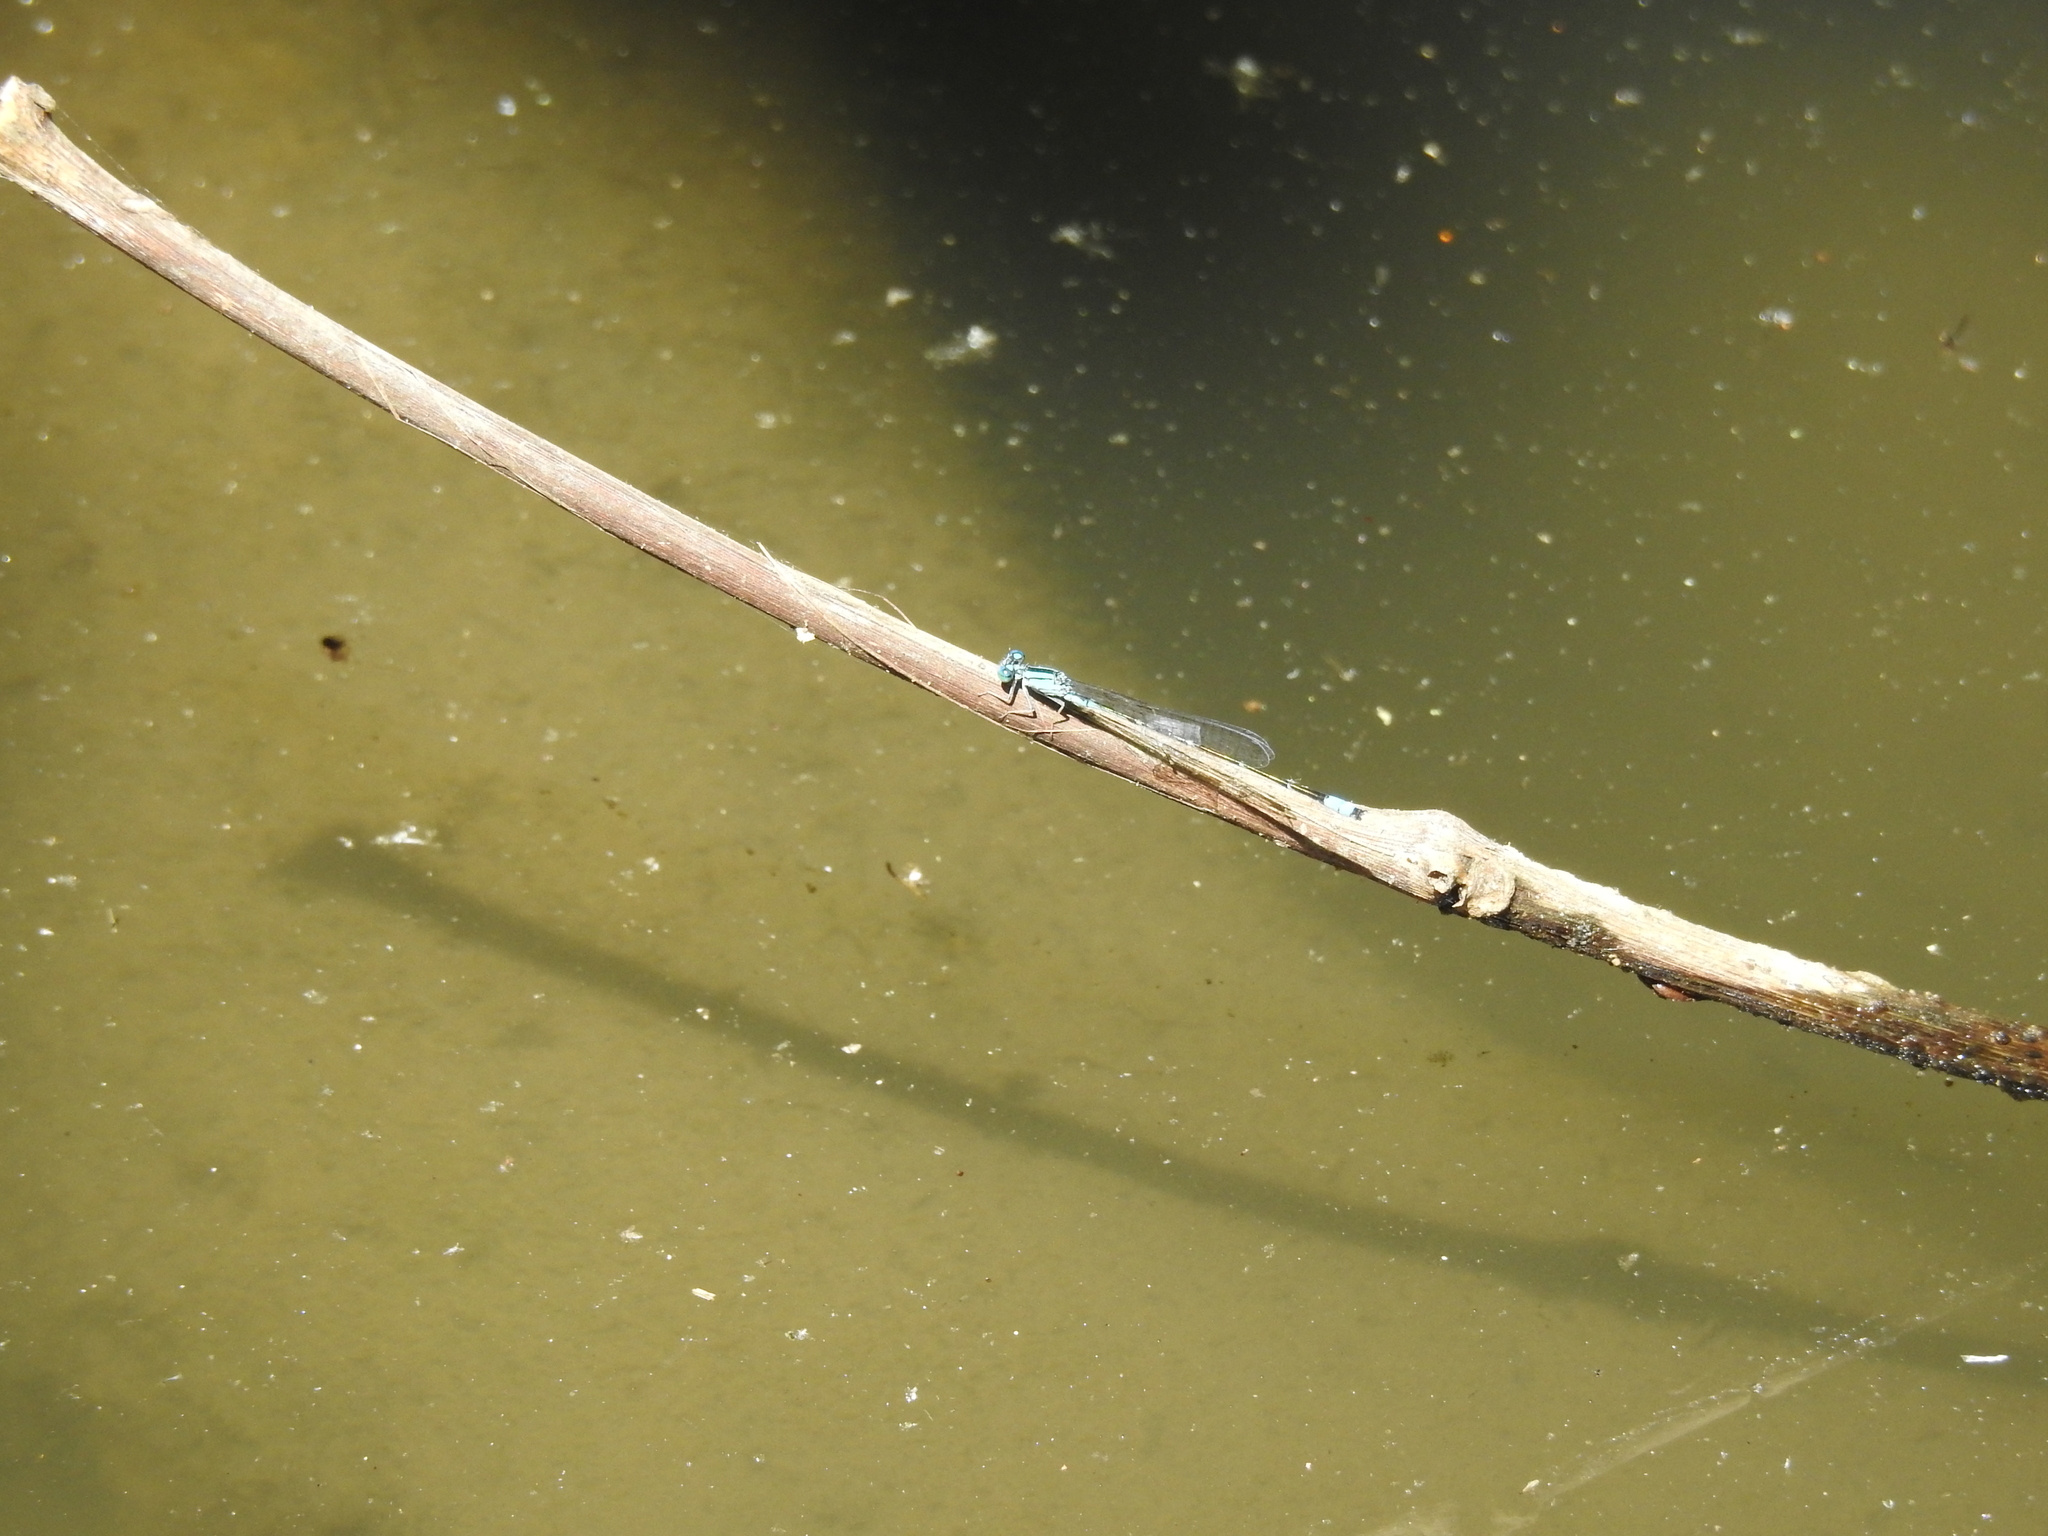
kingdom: Animalia
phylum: Arthropoda
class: Insecta
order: Odonata
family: Coenagrionidae
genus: Enallagma
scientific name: Enallagma traviatum
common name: Slender bluet
